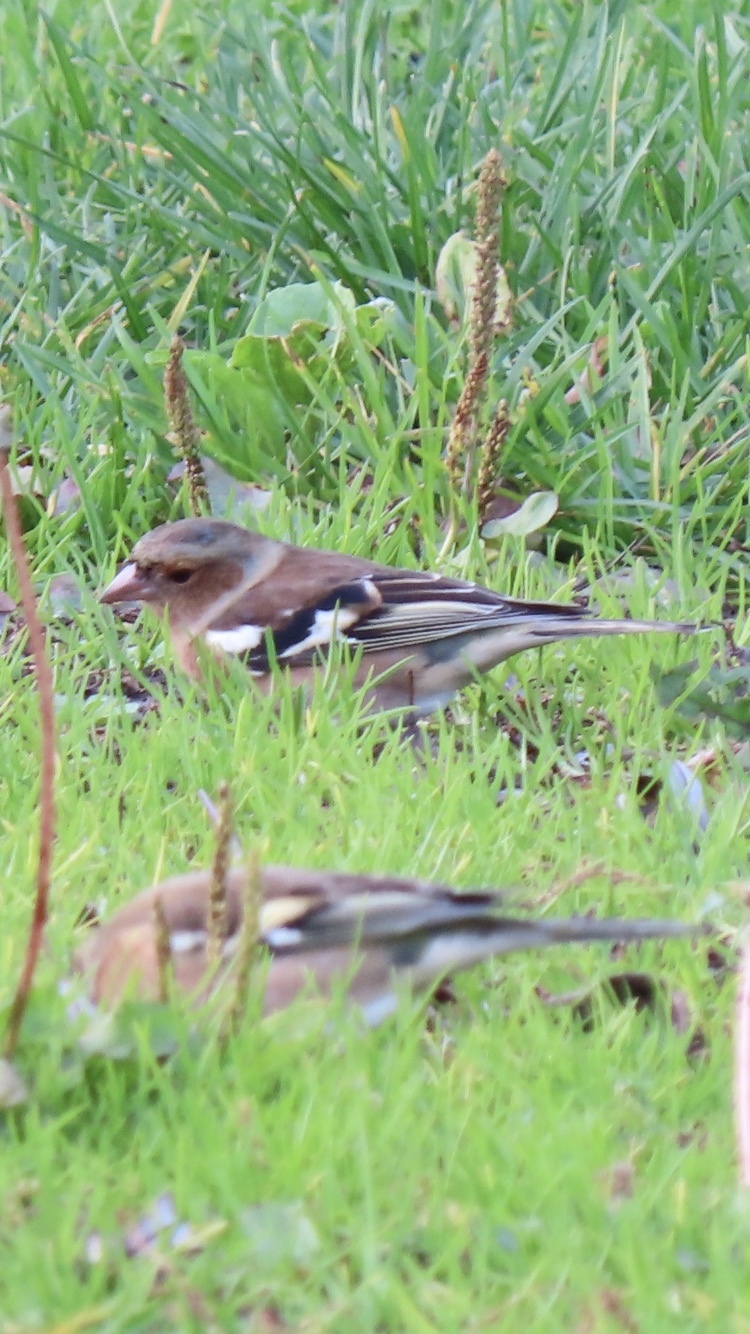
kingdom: Animalia
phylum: Chordata
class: Aves
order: Passeriformes
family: Fringillidae
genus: Fringilla
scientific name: Fringilla coelebs
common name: Common chaffinch
